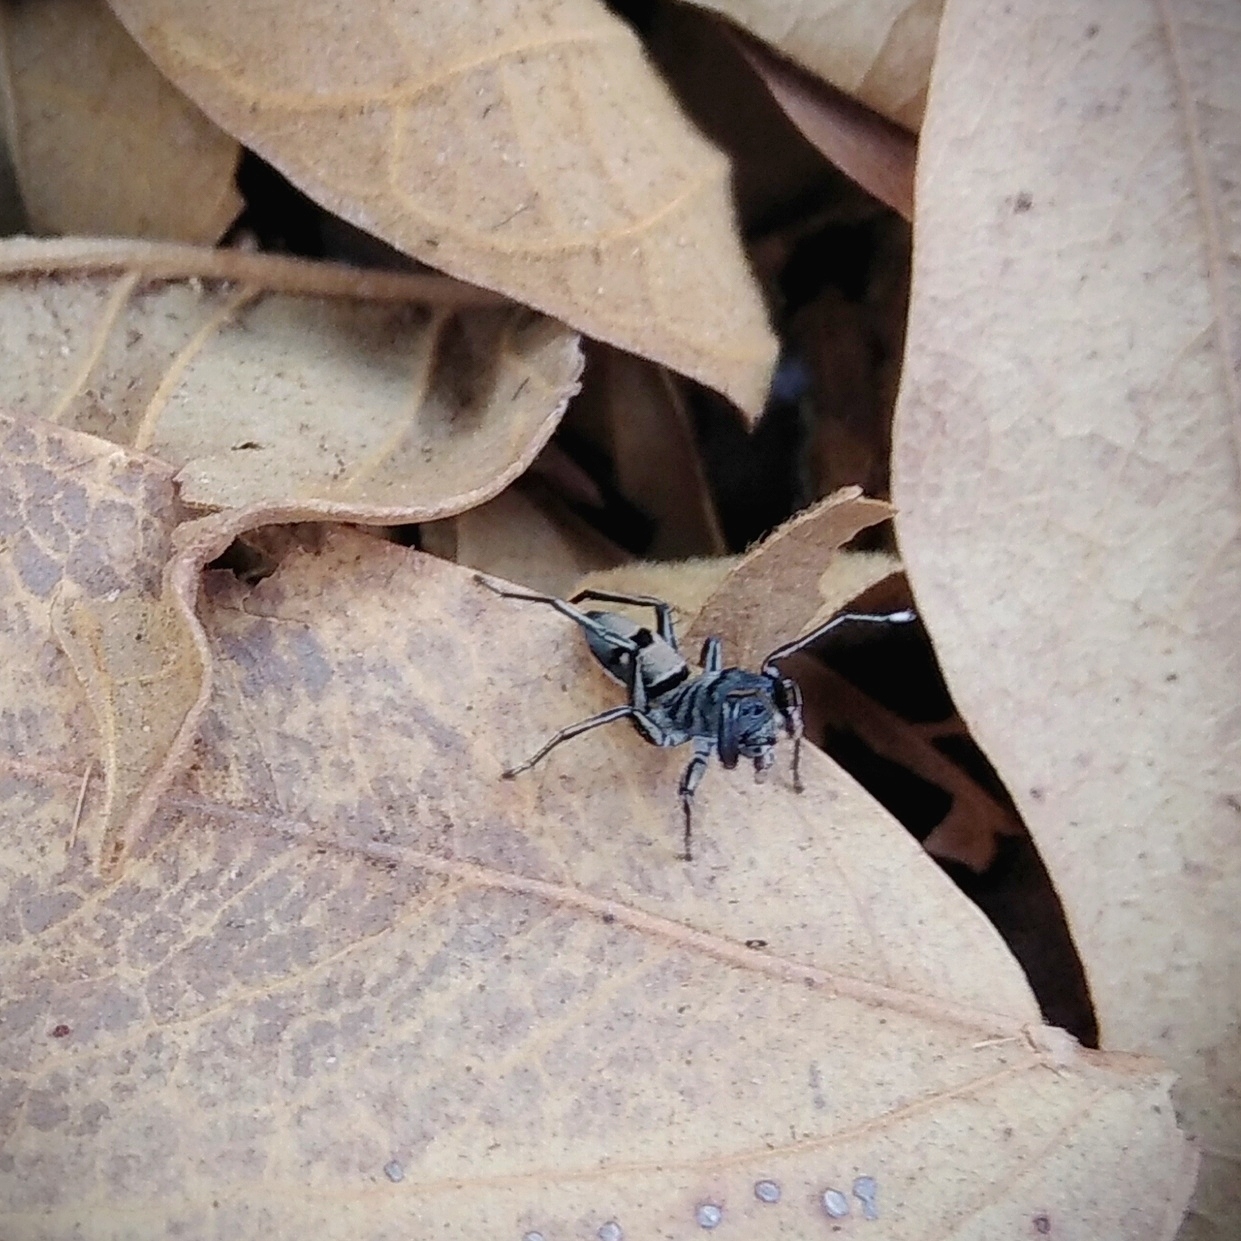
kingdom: Animalia
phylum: Arthropoda
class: Arachnida
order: Araneae
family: Salticidae
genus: Mexcala
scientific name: Mexcala elegans
